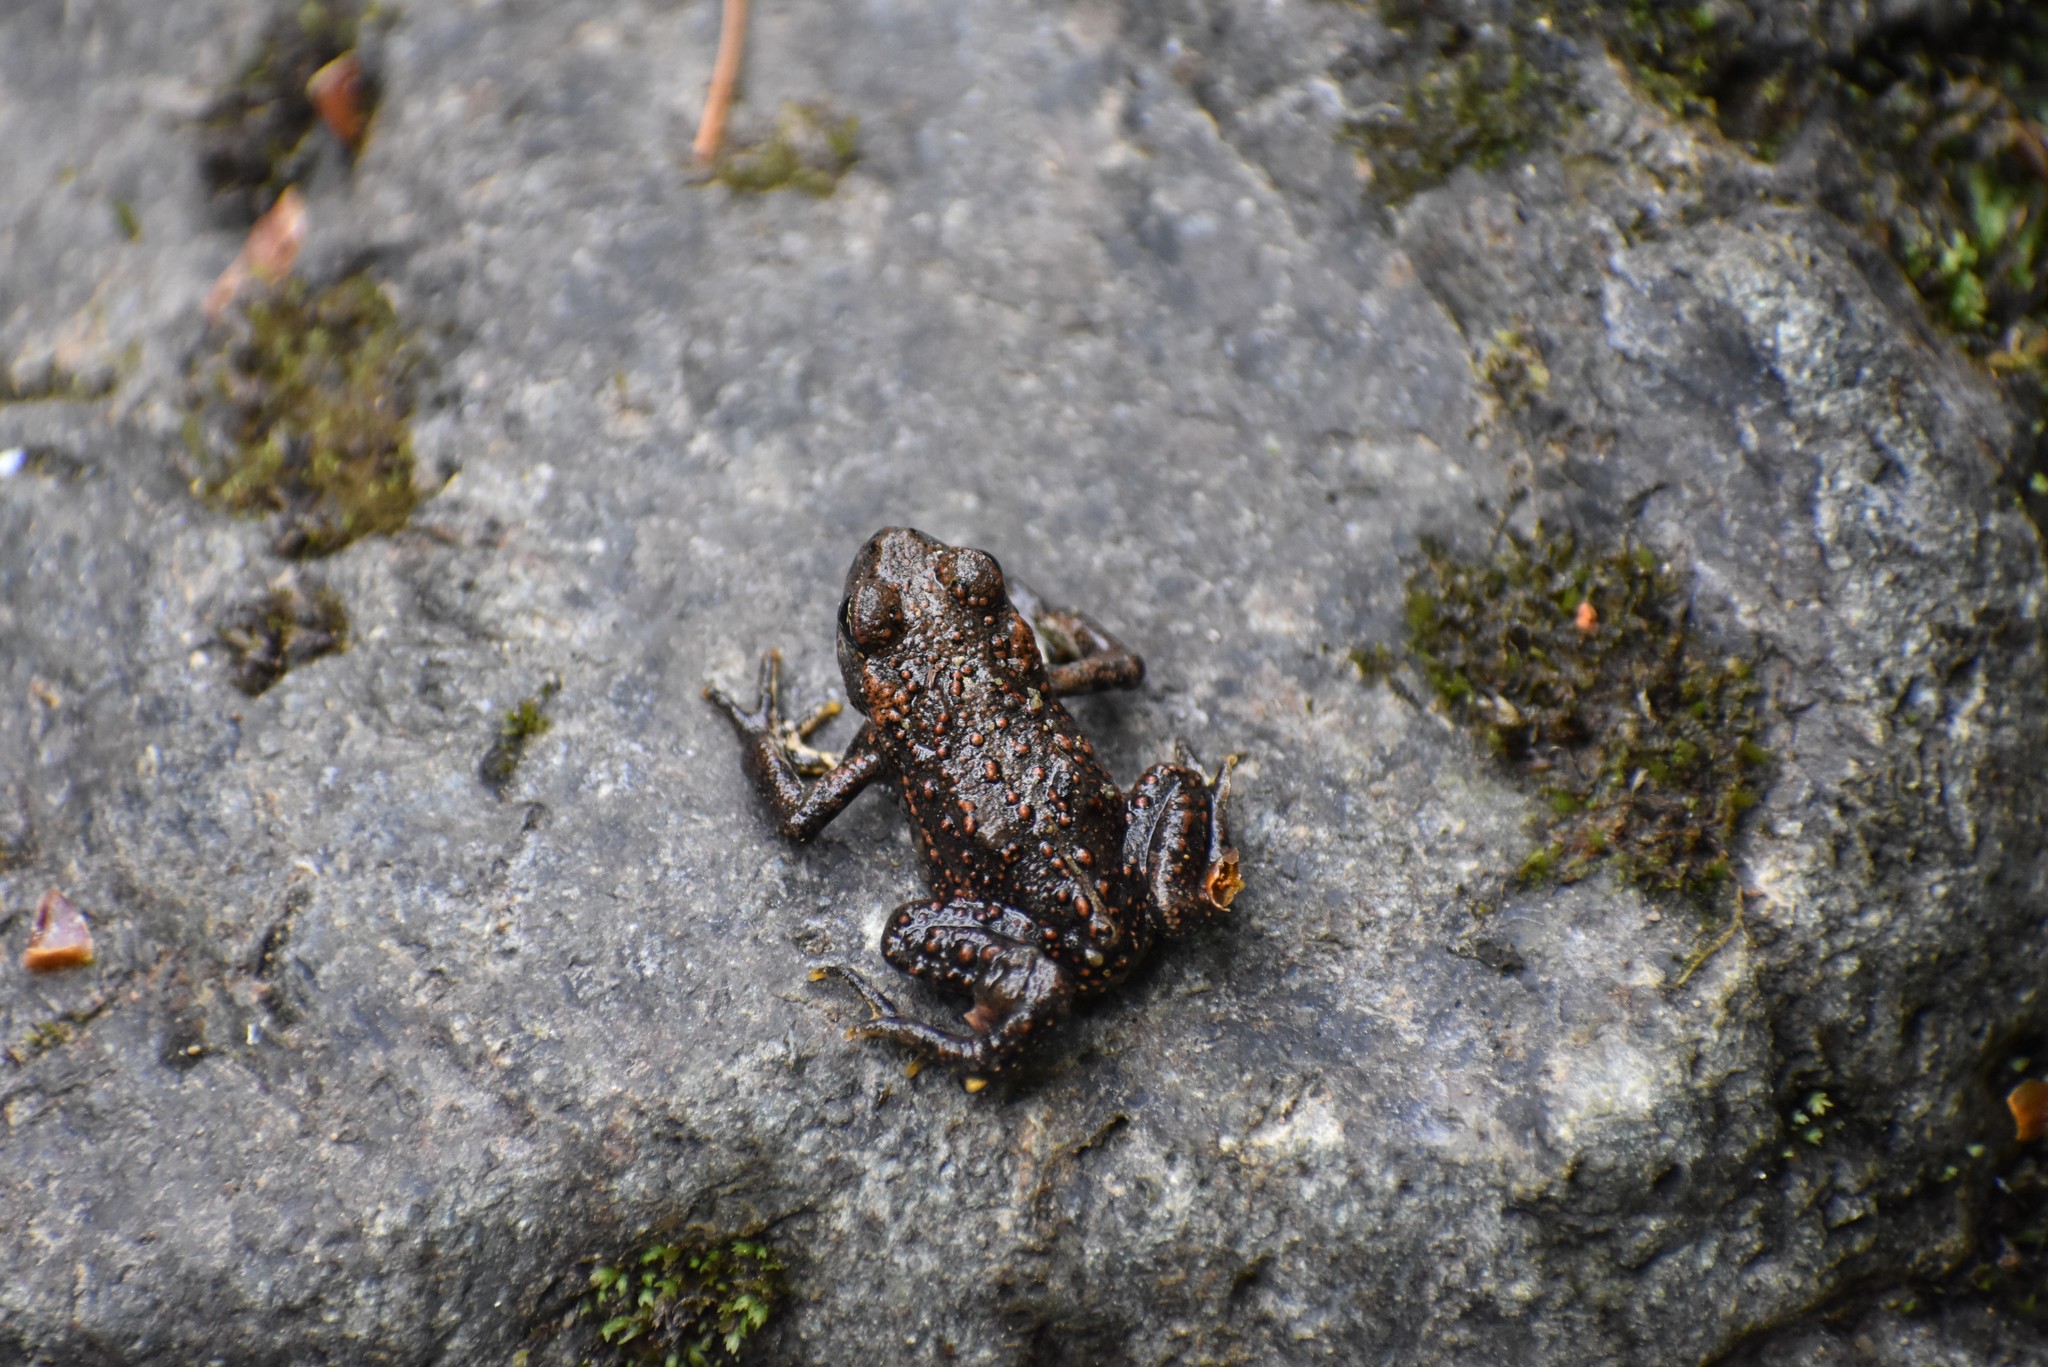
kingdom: Animalia
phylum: Chordata
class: Amphibia
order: Anura
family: Bufonidae
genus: Anaxyrus
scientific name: Anaxyrus boreas
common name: Western toad
